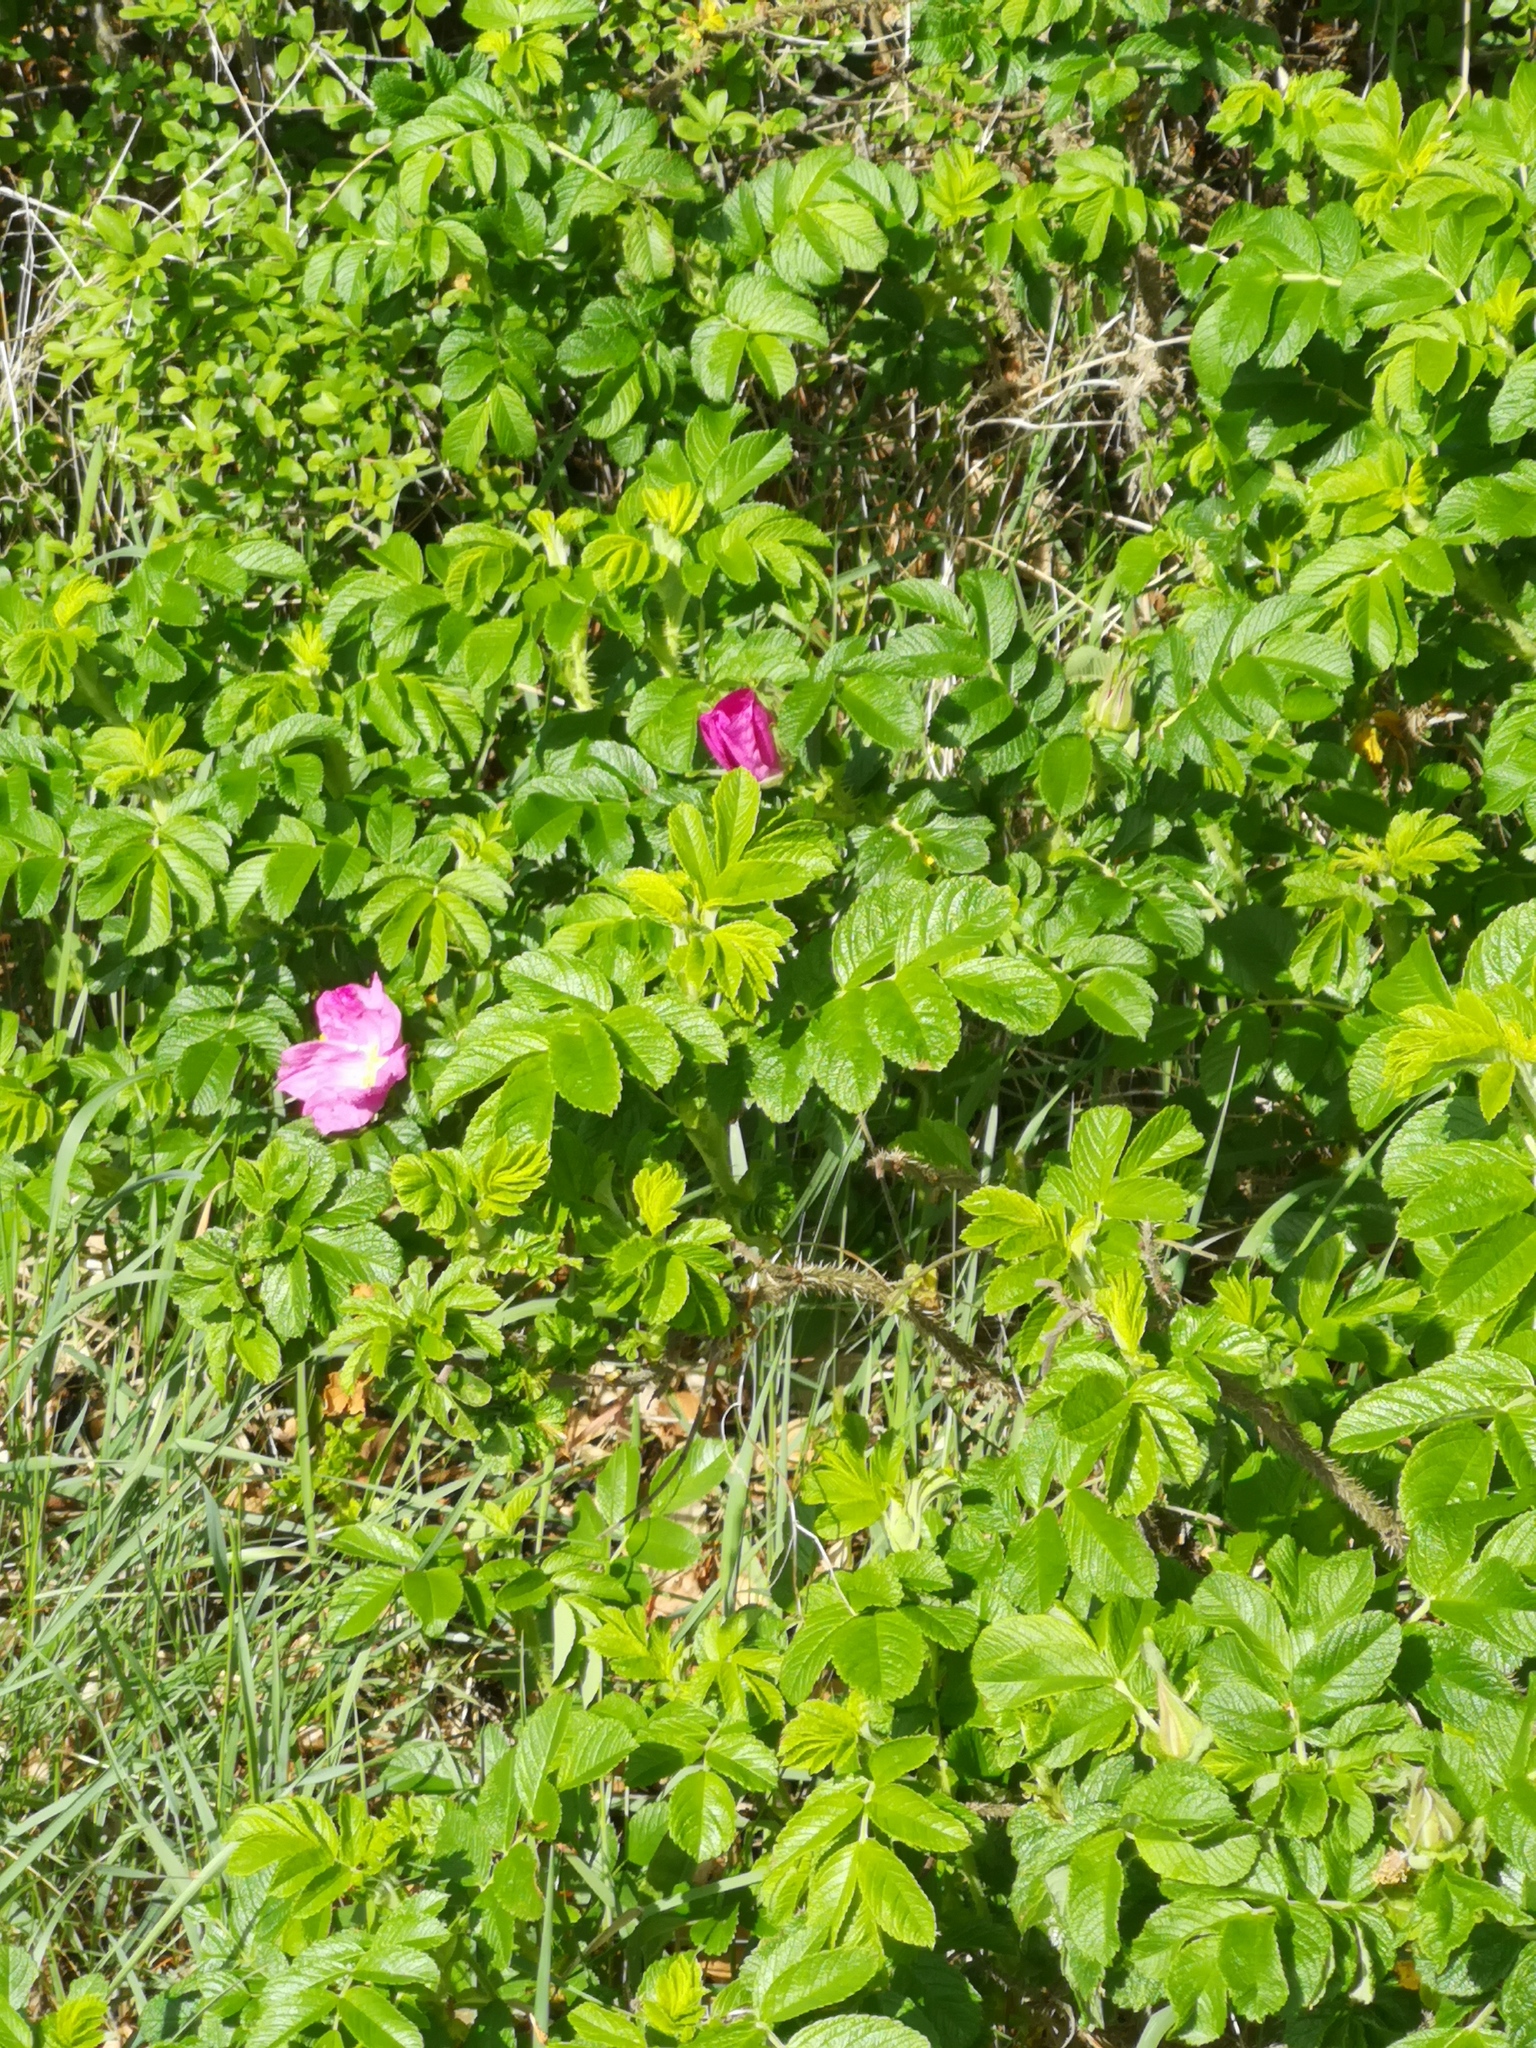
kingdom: Plantae
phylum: Tracheophyta
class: Magnoliopsida
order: Rosales
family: Rosaceae
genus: Rosa
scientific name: Rosa rugosa
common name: Japanese rose
